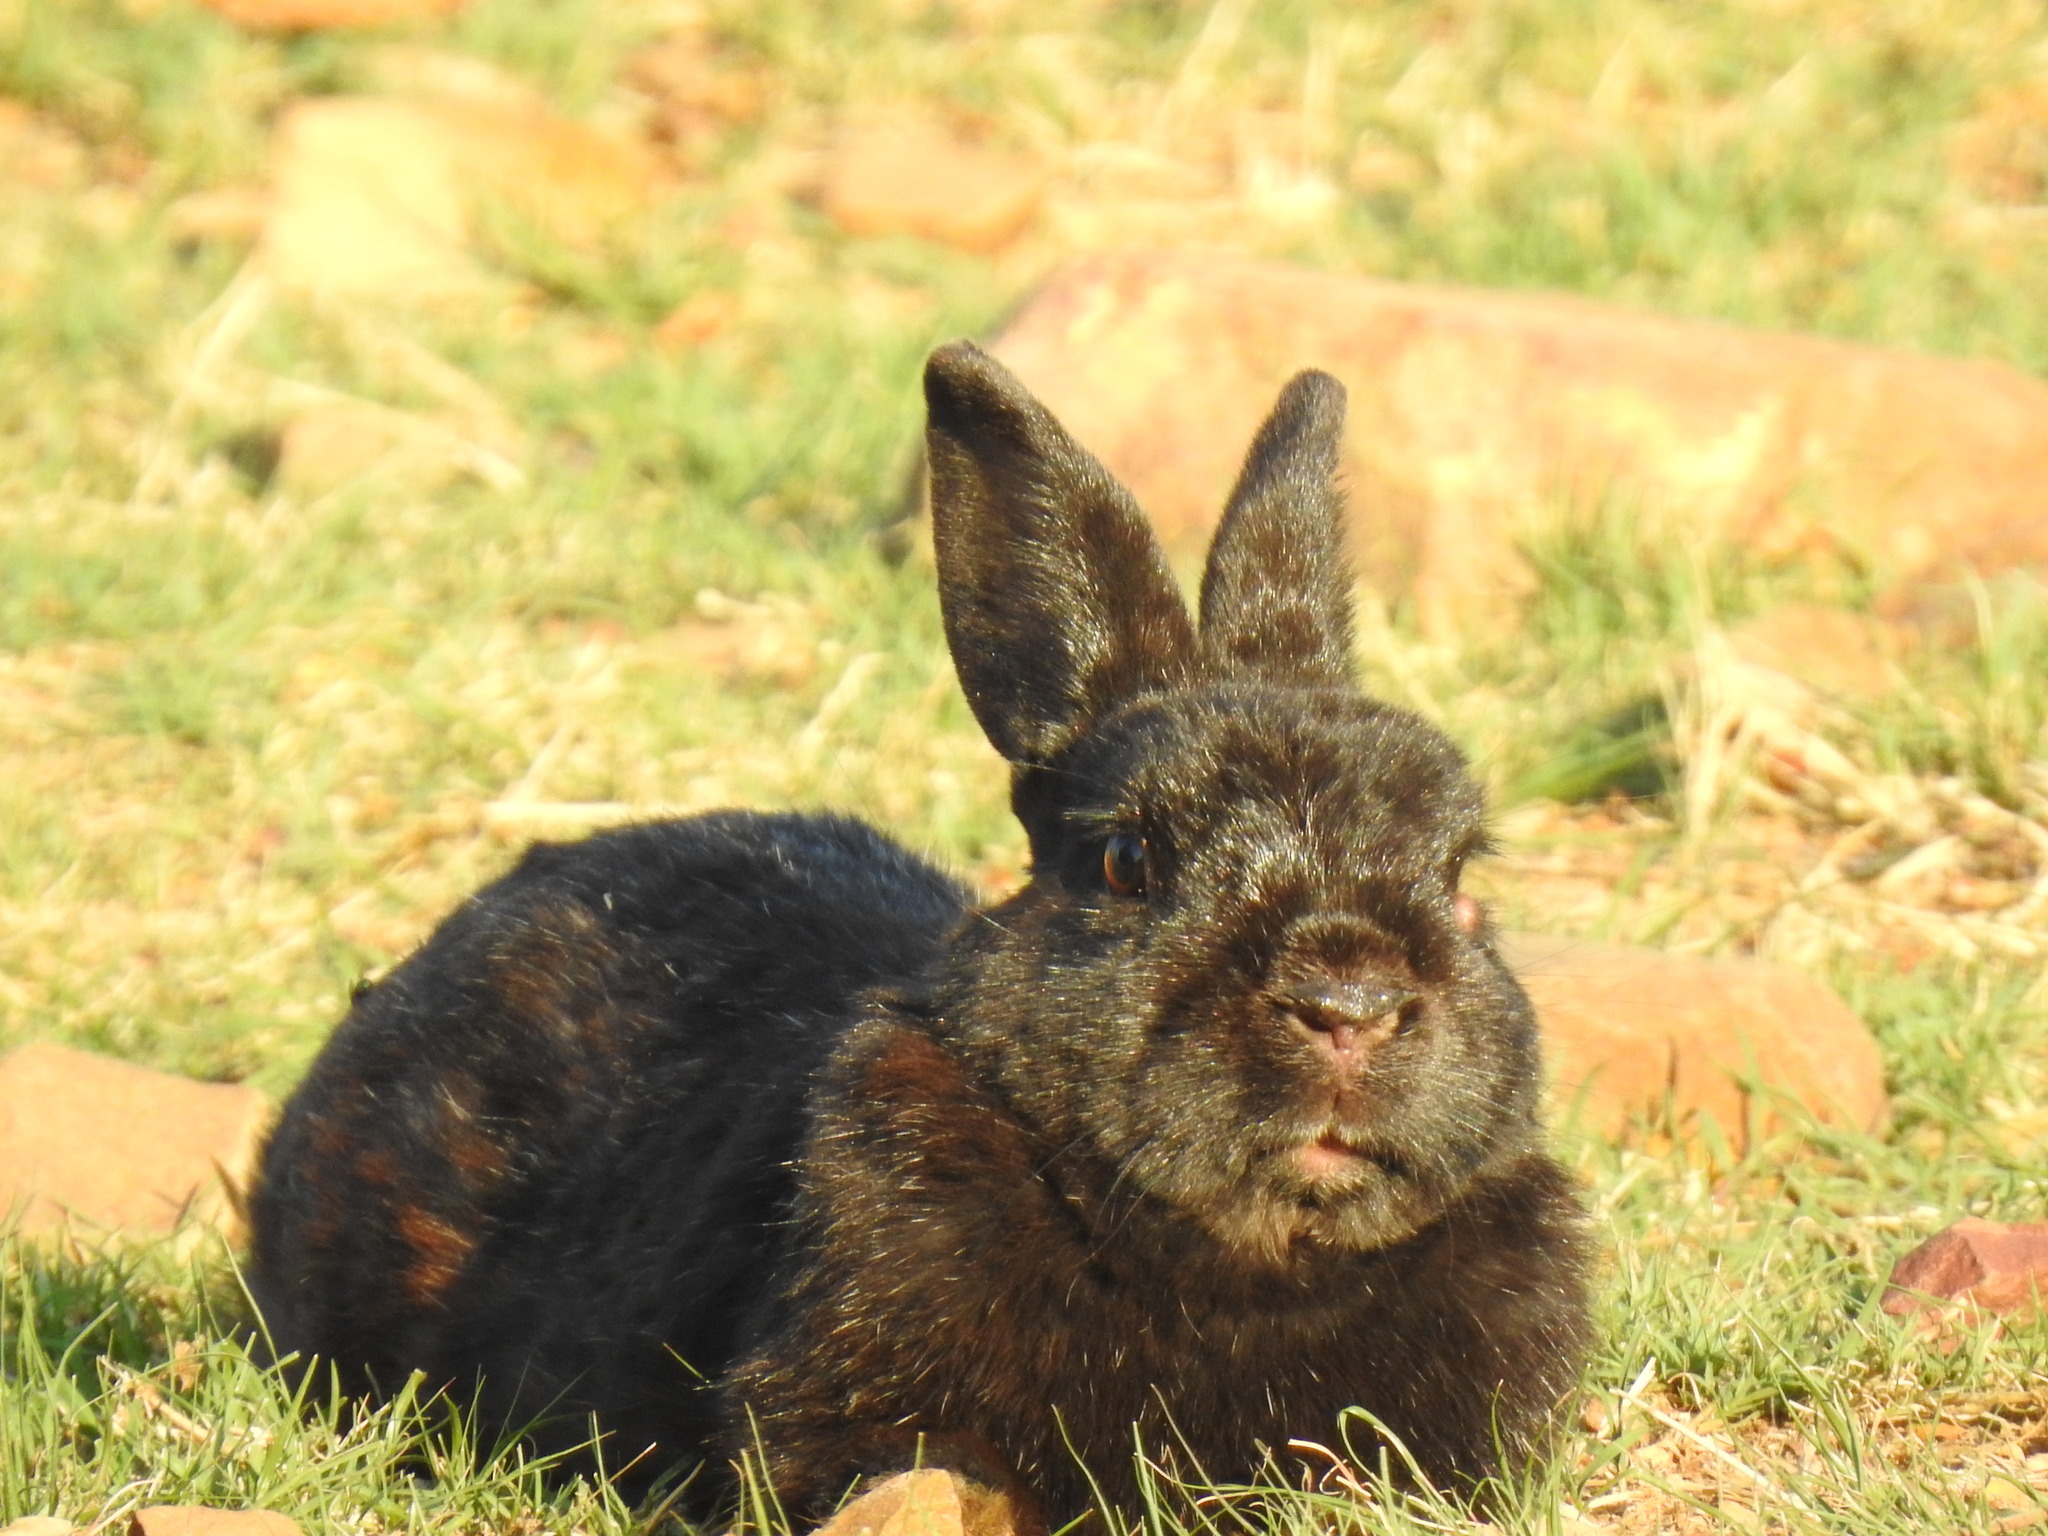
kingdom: Animalia
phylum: Chordata
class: Mammalia
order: Lagomorpha
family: Leporidae
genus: Oryctolagus
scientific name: Oryctolagus cuniculus
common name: European rabbit
